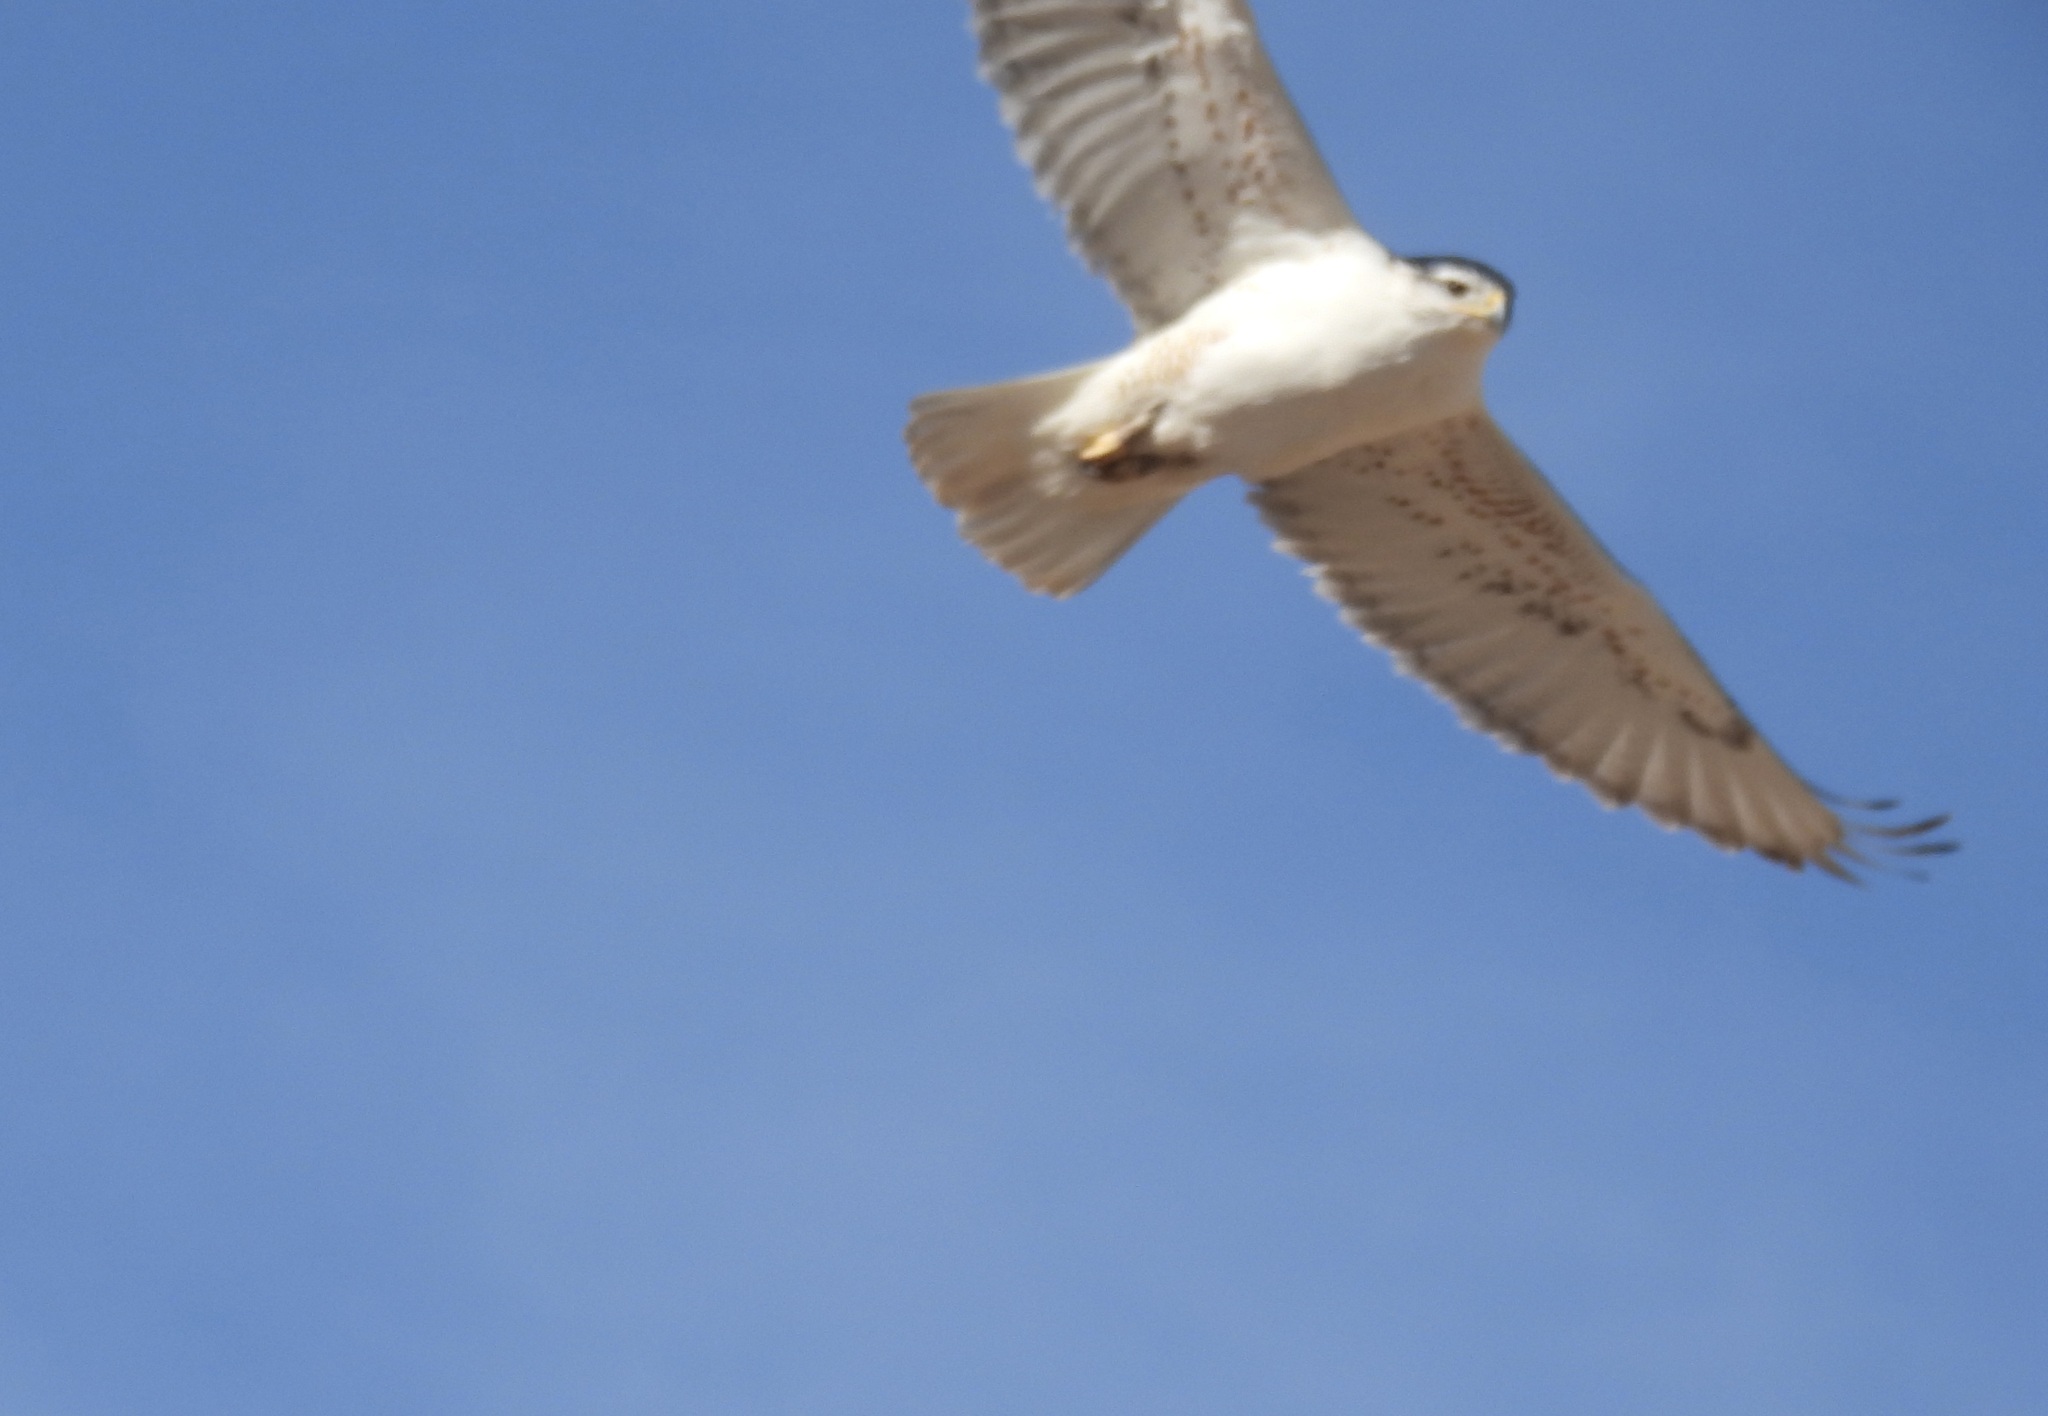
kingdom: Animalia
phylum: Chordata
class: Aves
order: Accipitriformes
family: Accipitridae
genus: Buteo
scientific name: Buteo regalis
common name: Ferruginous hawk
